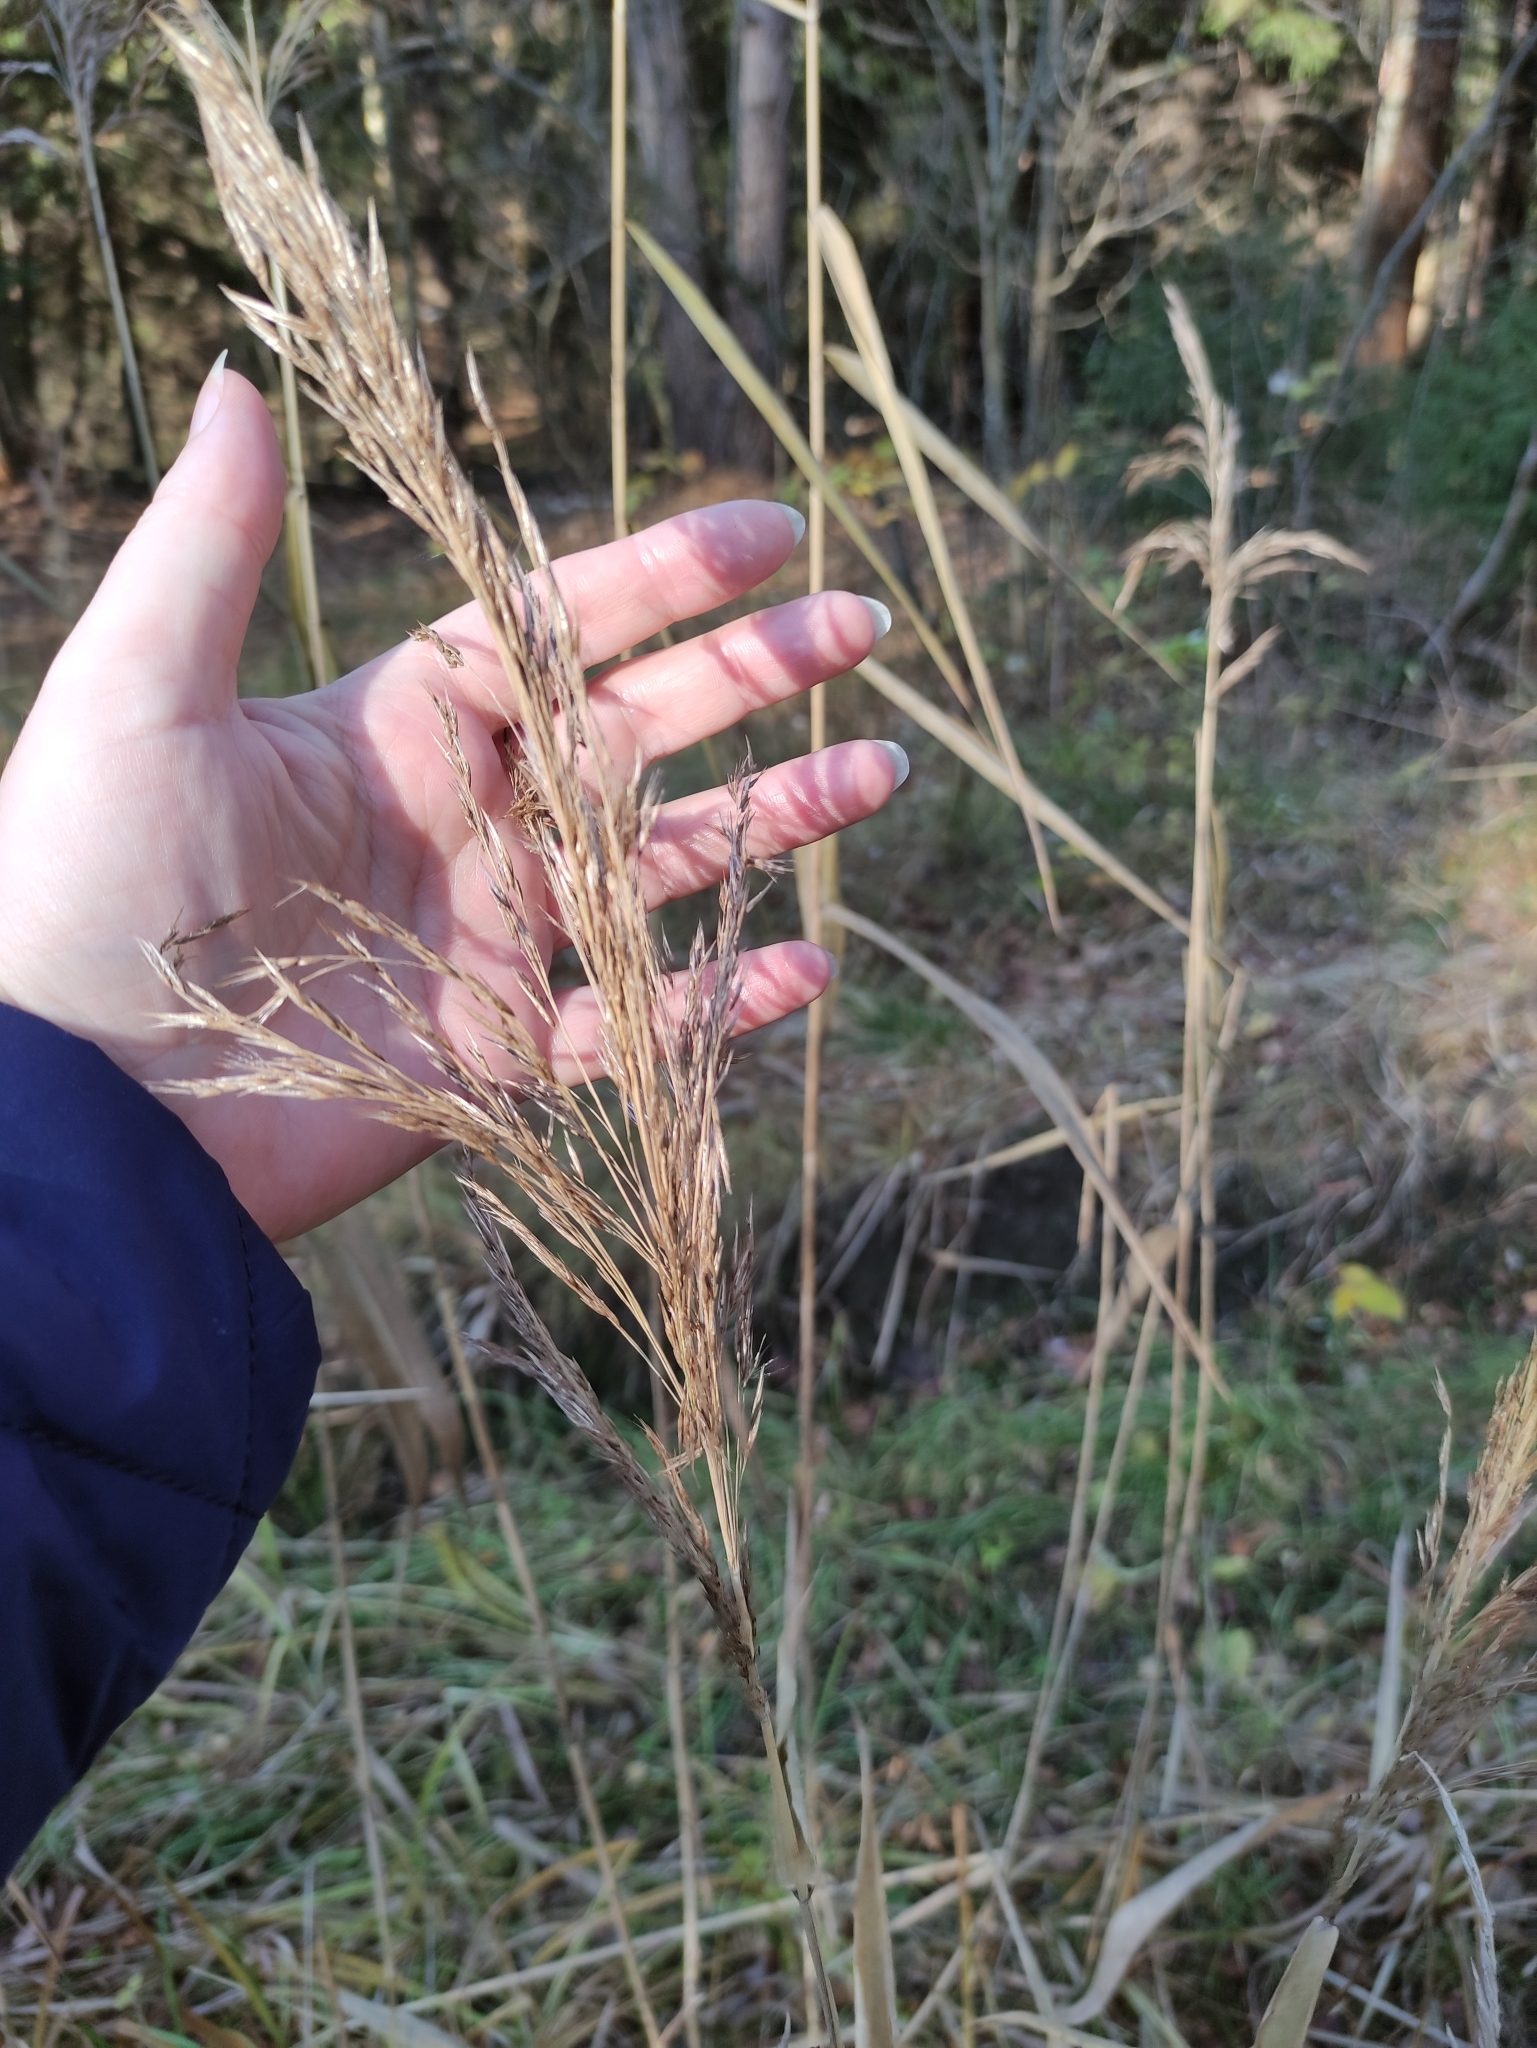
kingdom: Plantae
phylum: Tracheophyta
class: Liliopsida
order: Poales
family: Poaceae
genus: Phragmites
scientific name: Phragmites australis
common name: Common reed
